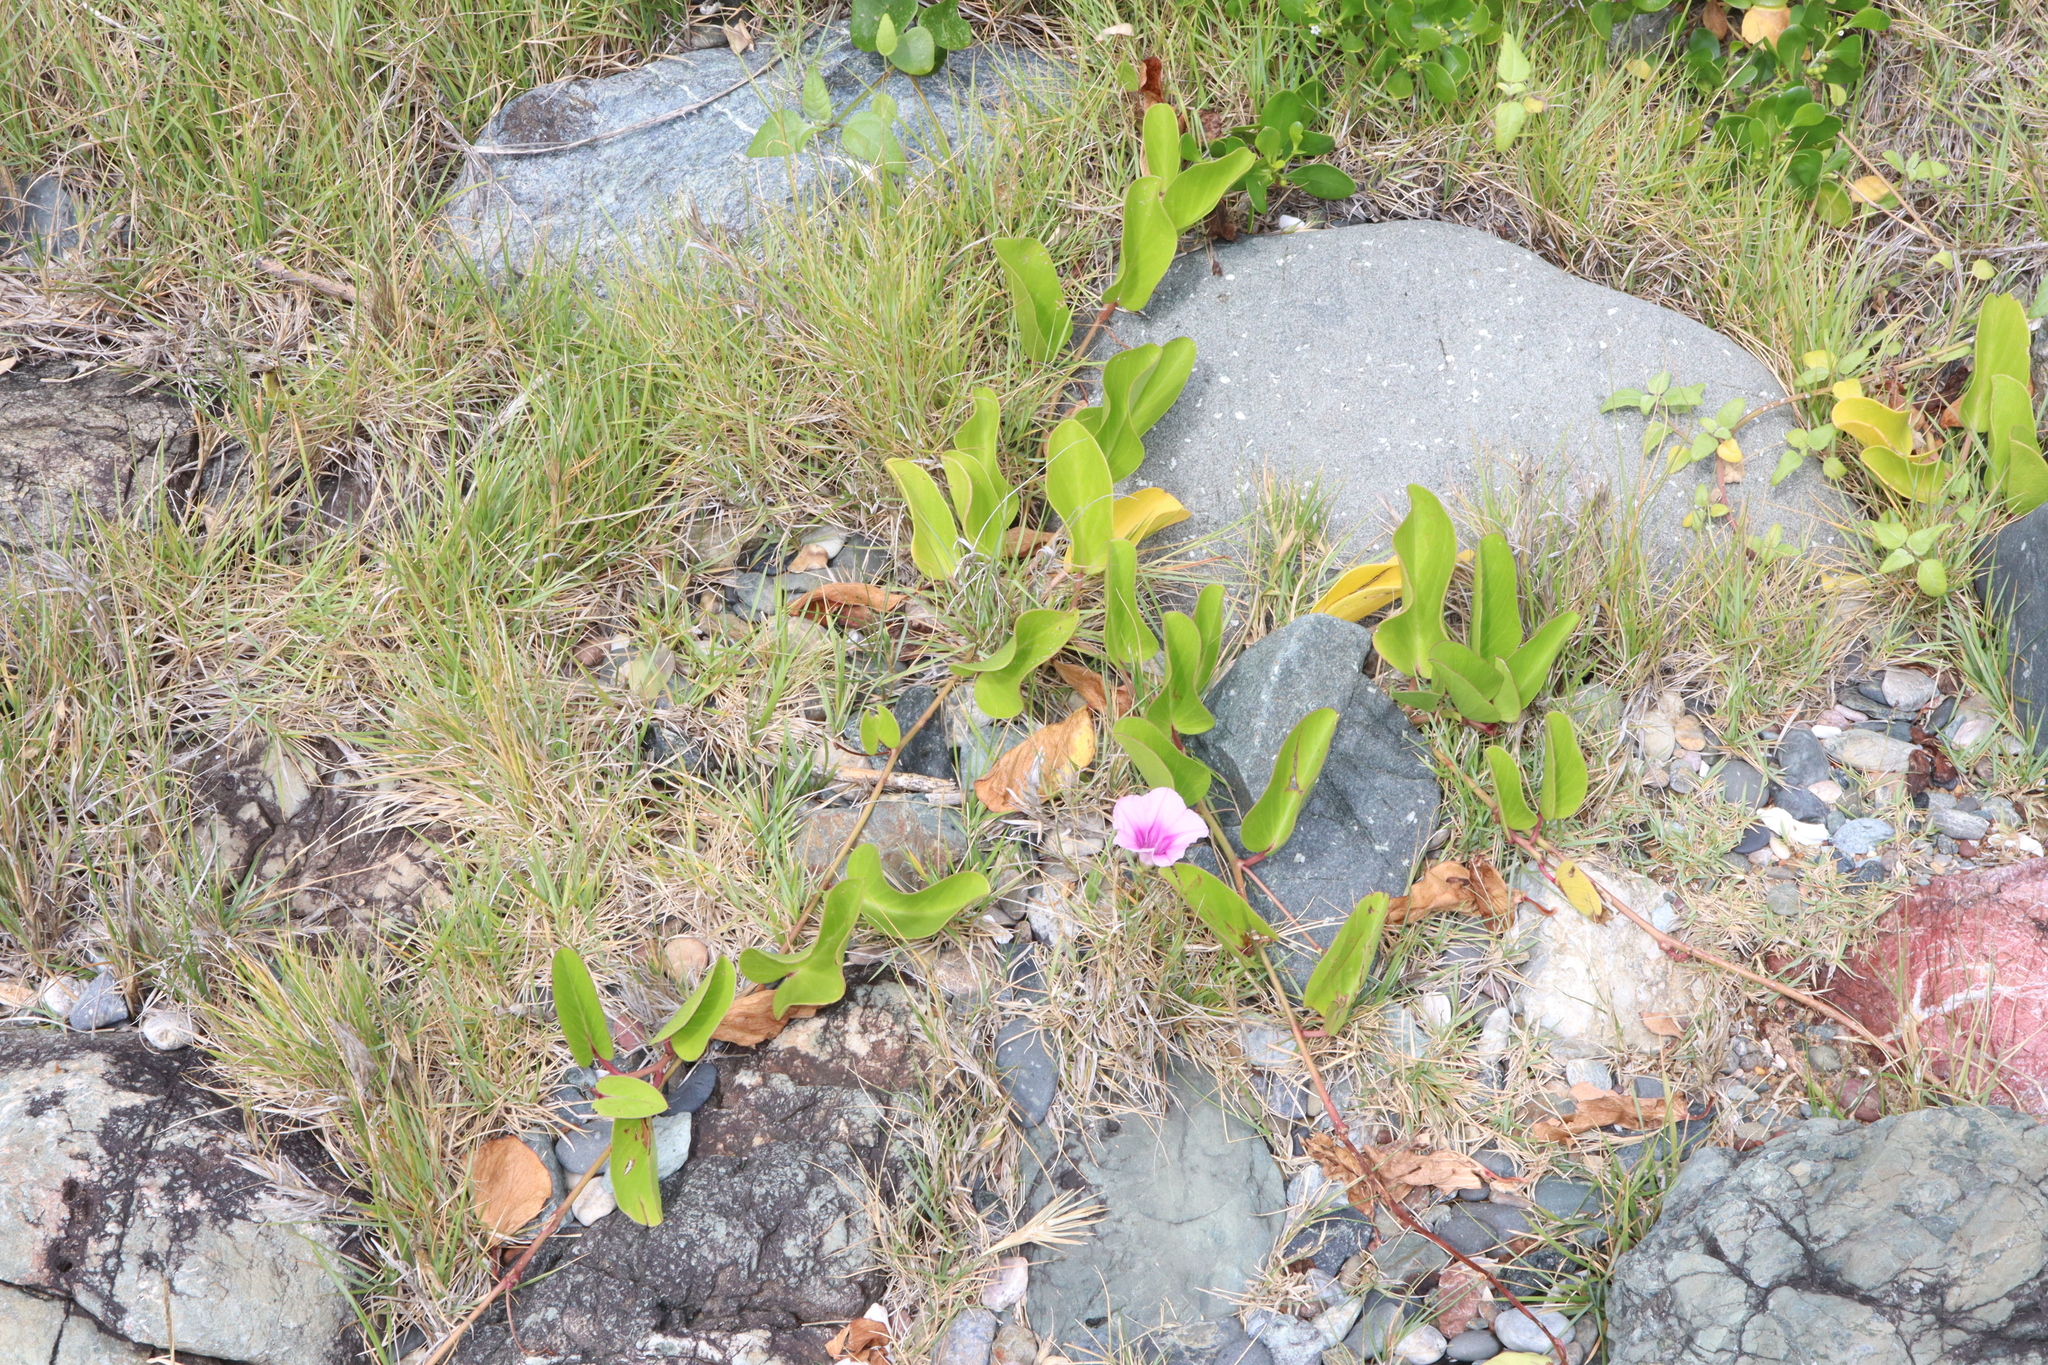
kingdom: Plantae
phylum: Tracheophyta
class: Magnoliopsida
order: Solanales
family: Convolvulaceae
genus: Ipomoea
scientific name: Ipomoea pes-caprae
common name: Beach morning glory
